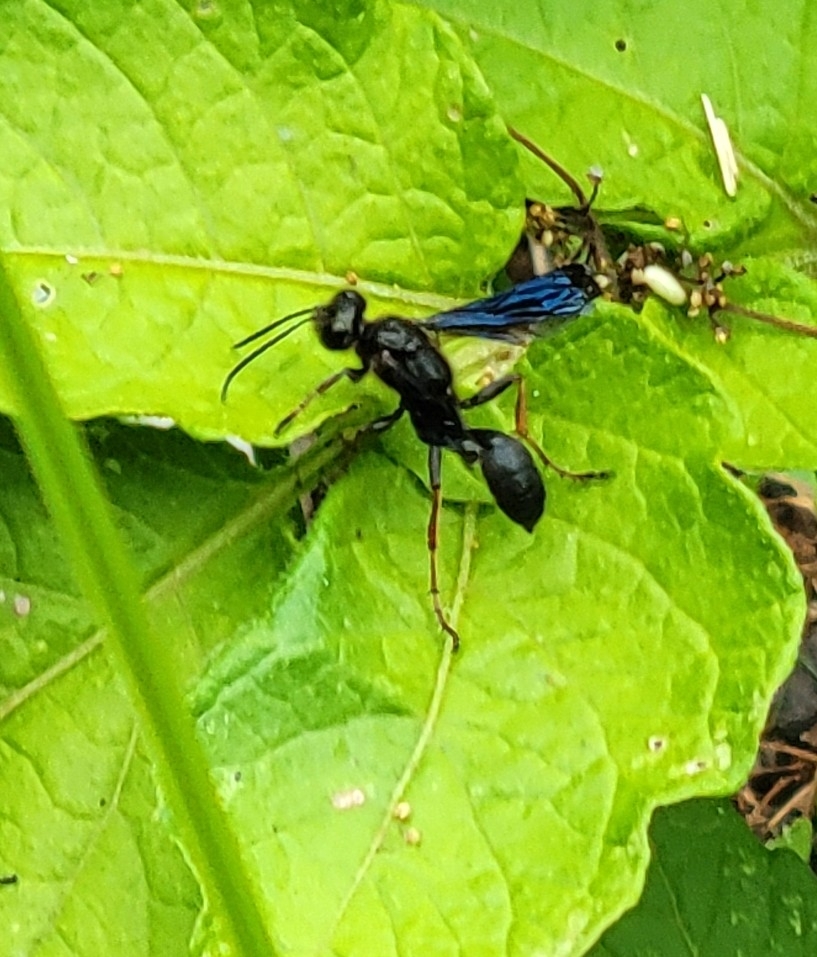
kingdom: Animalia
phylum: Arthropoda
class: Insecta
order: Hymenoptera
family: Sphecidae
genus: Isodontia
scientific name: Isodontia auripes
